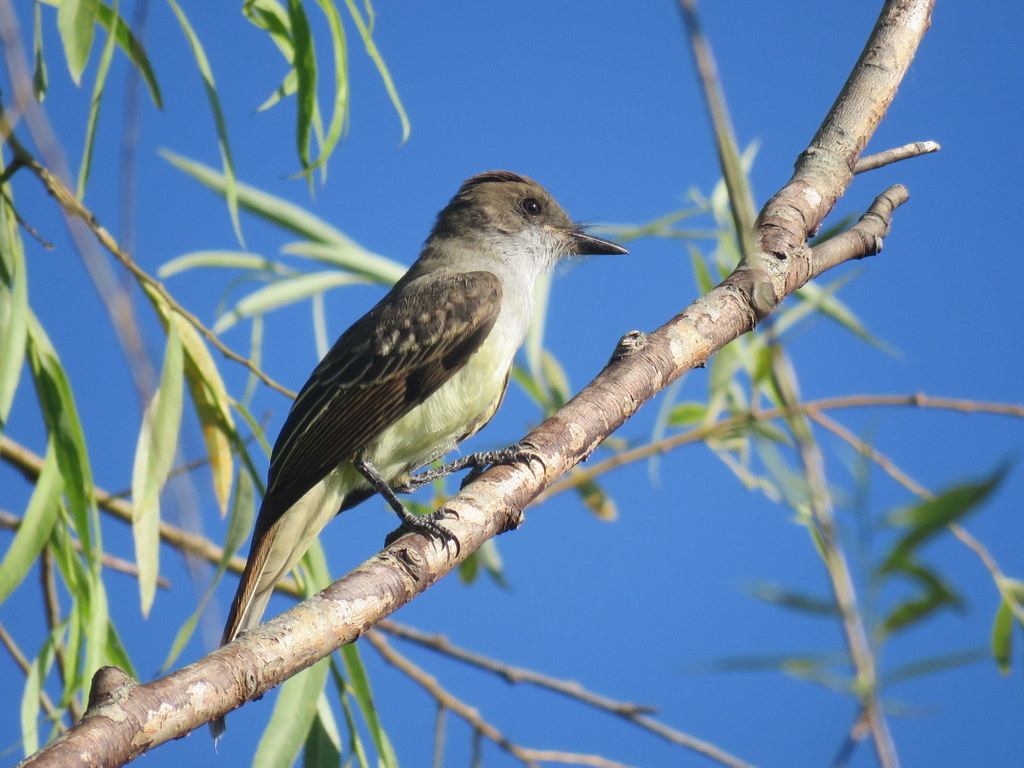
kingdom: Animalia
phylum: Chordata
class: Aves
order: Passeriformes
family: Tyrannidae
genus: Myiarchus
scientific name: Myiarchus swainsoni
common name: Swainson's flycatcher
